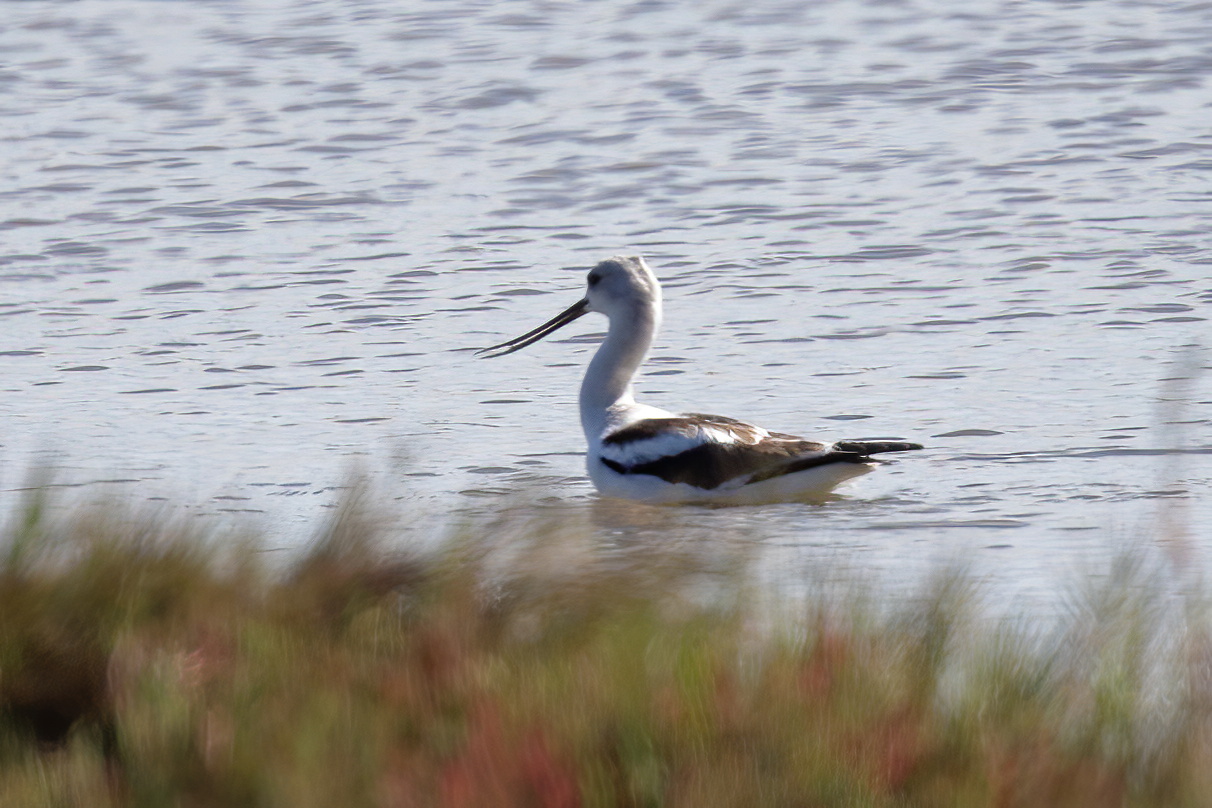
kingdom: Animalia
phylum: Chordata
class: Aves
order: Charadriiformes
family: Recurvirostridae
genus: Recurvirostra
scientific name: Recurvirostra americana
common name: American avocet
